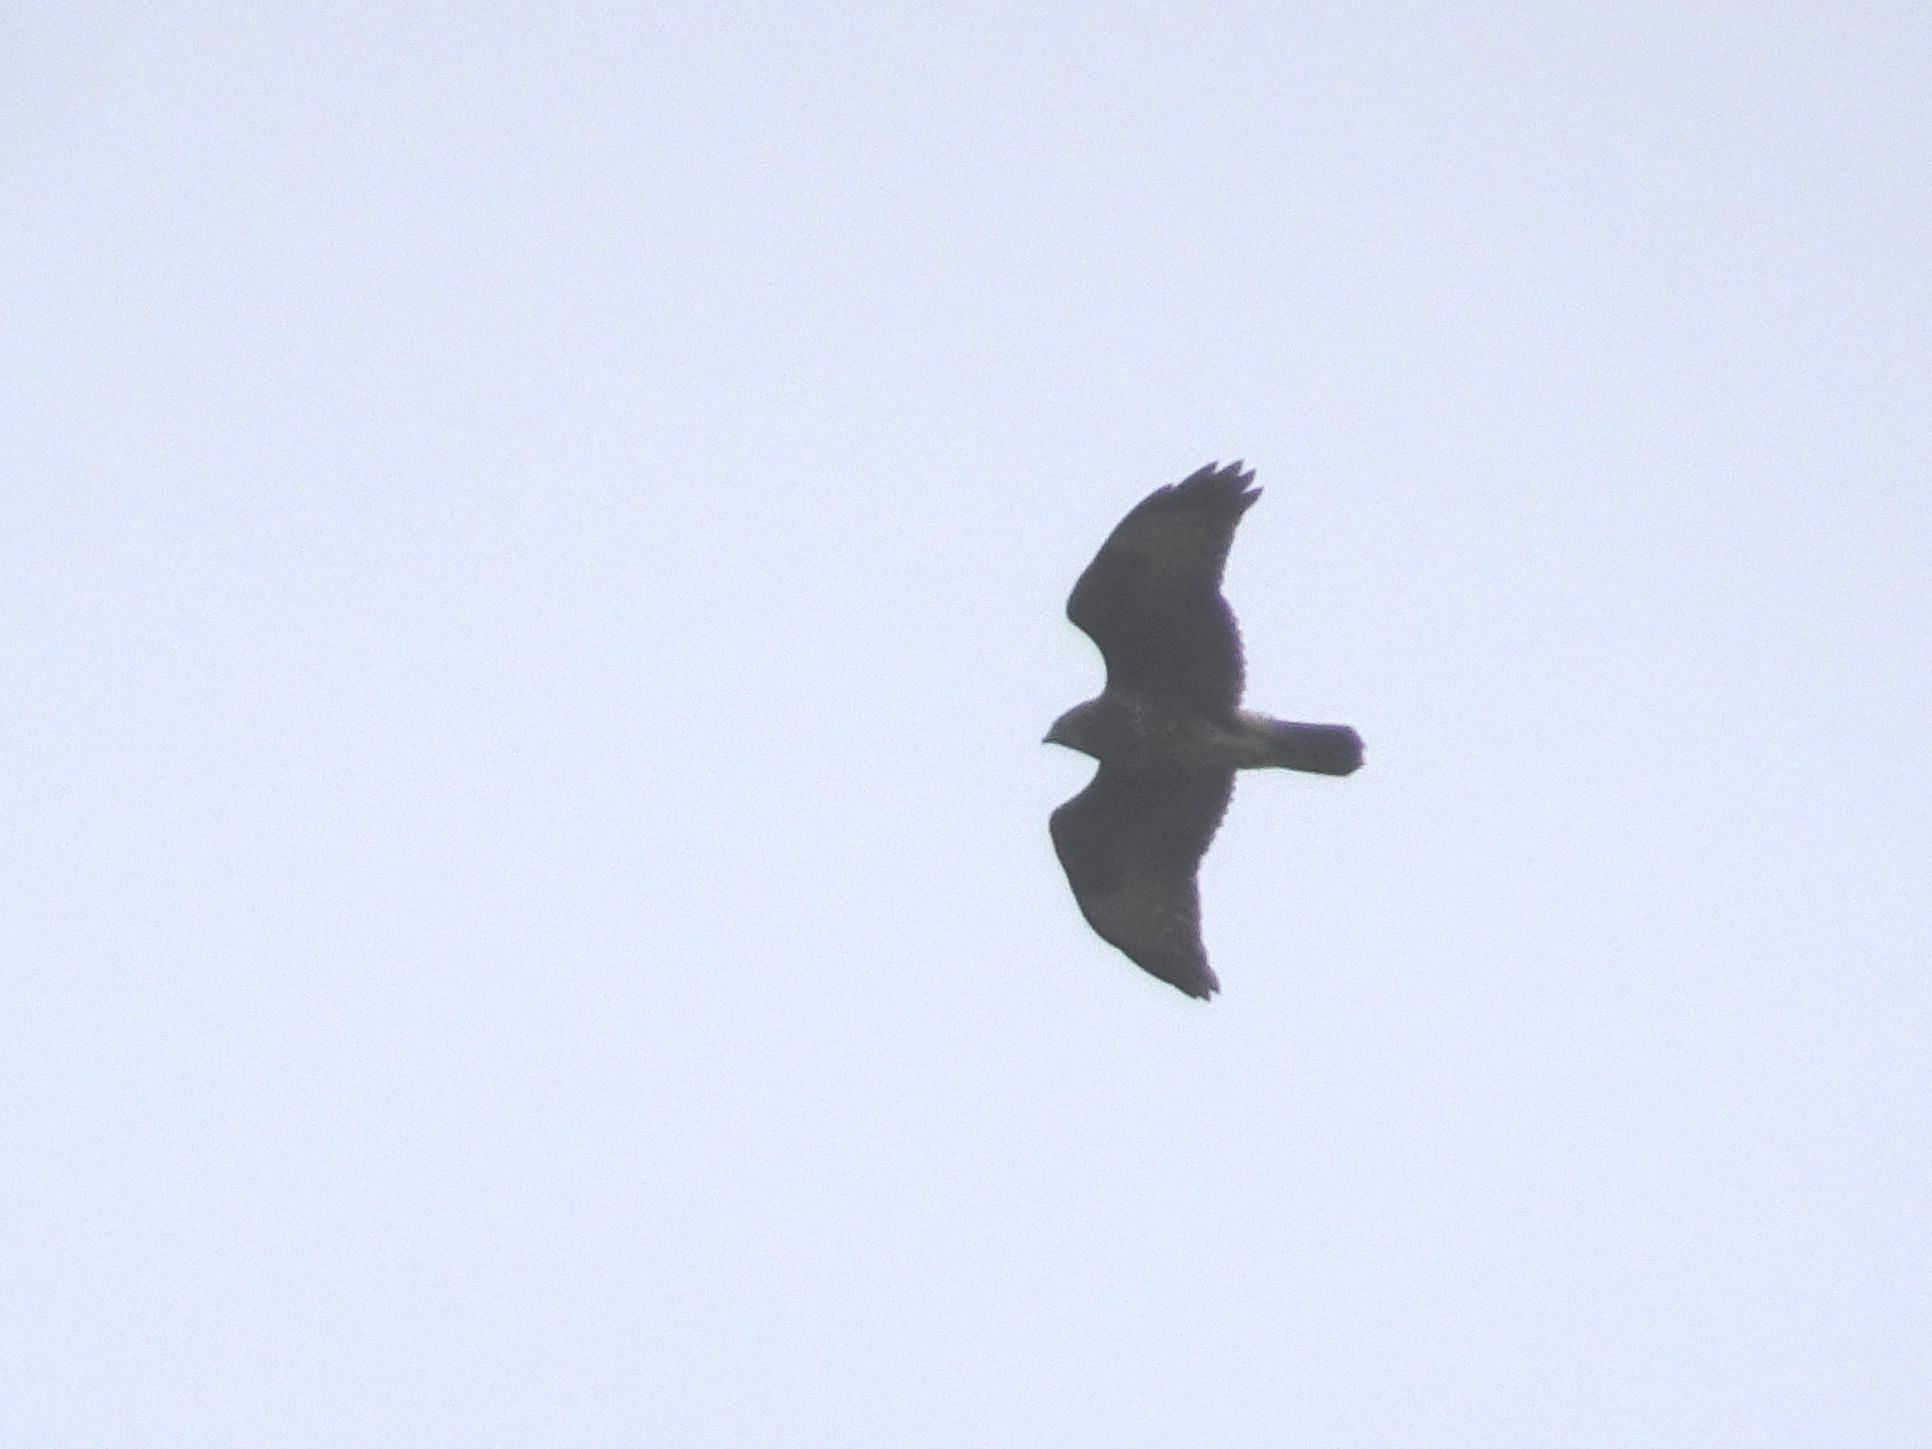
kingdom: Animalia
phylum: Chordata
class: Aves
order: Accipitriformes
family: Accipitridae
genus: Buteo
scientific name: Buteo buteo
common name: Common buzzard
